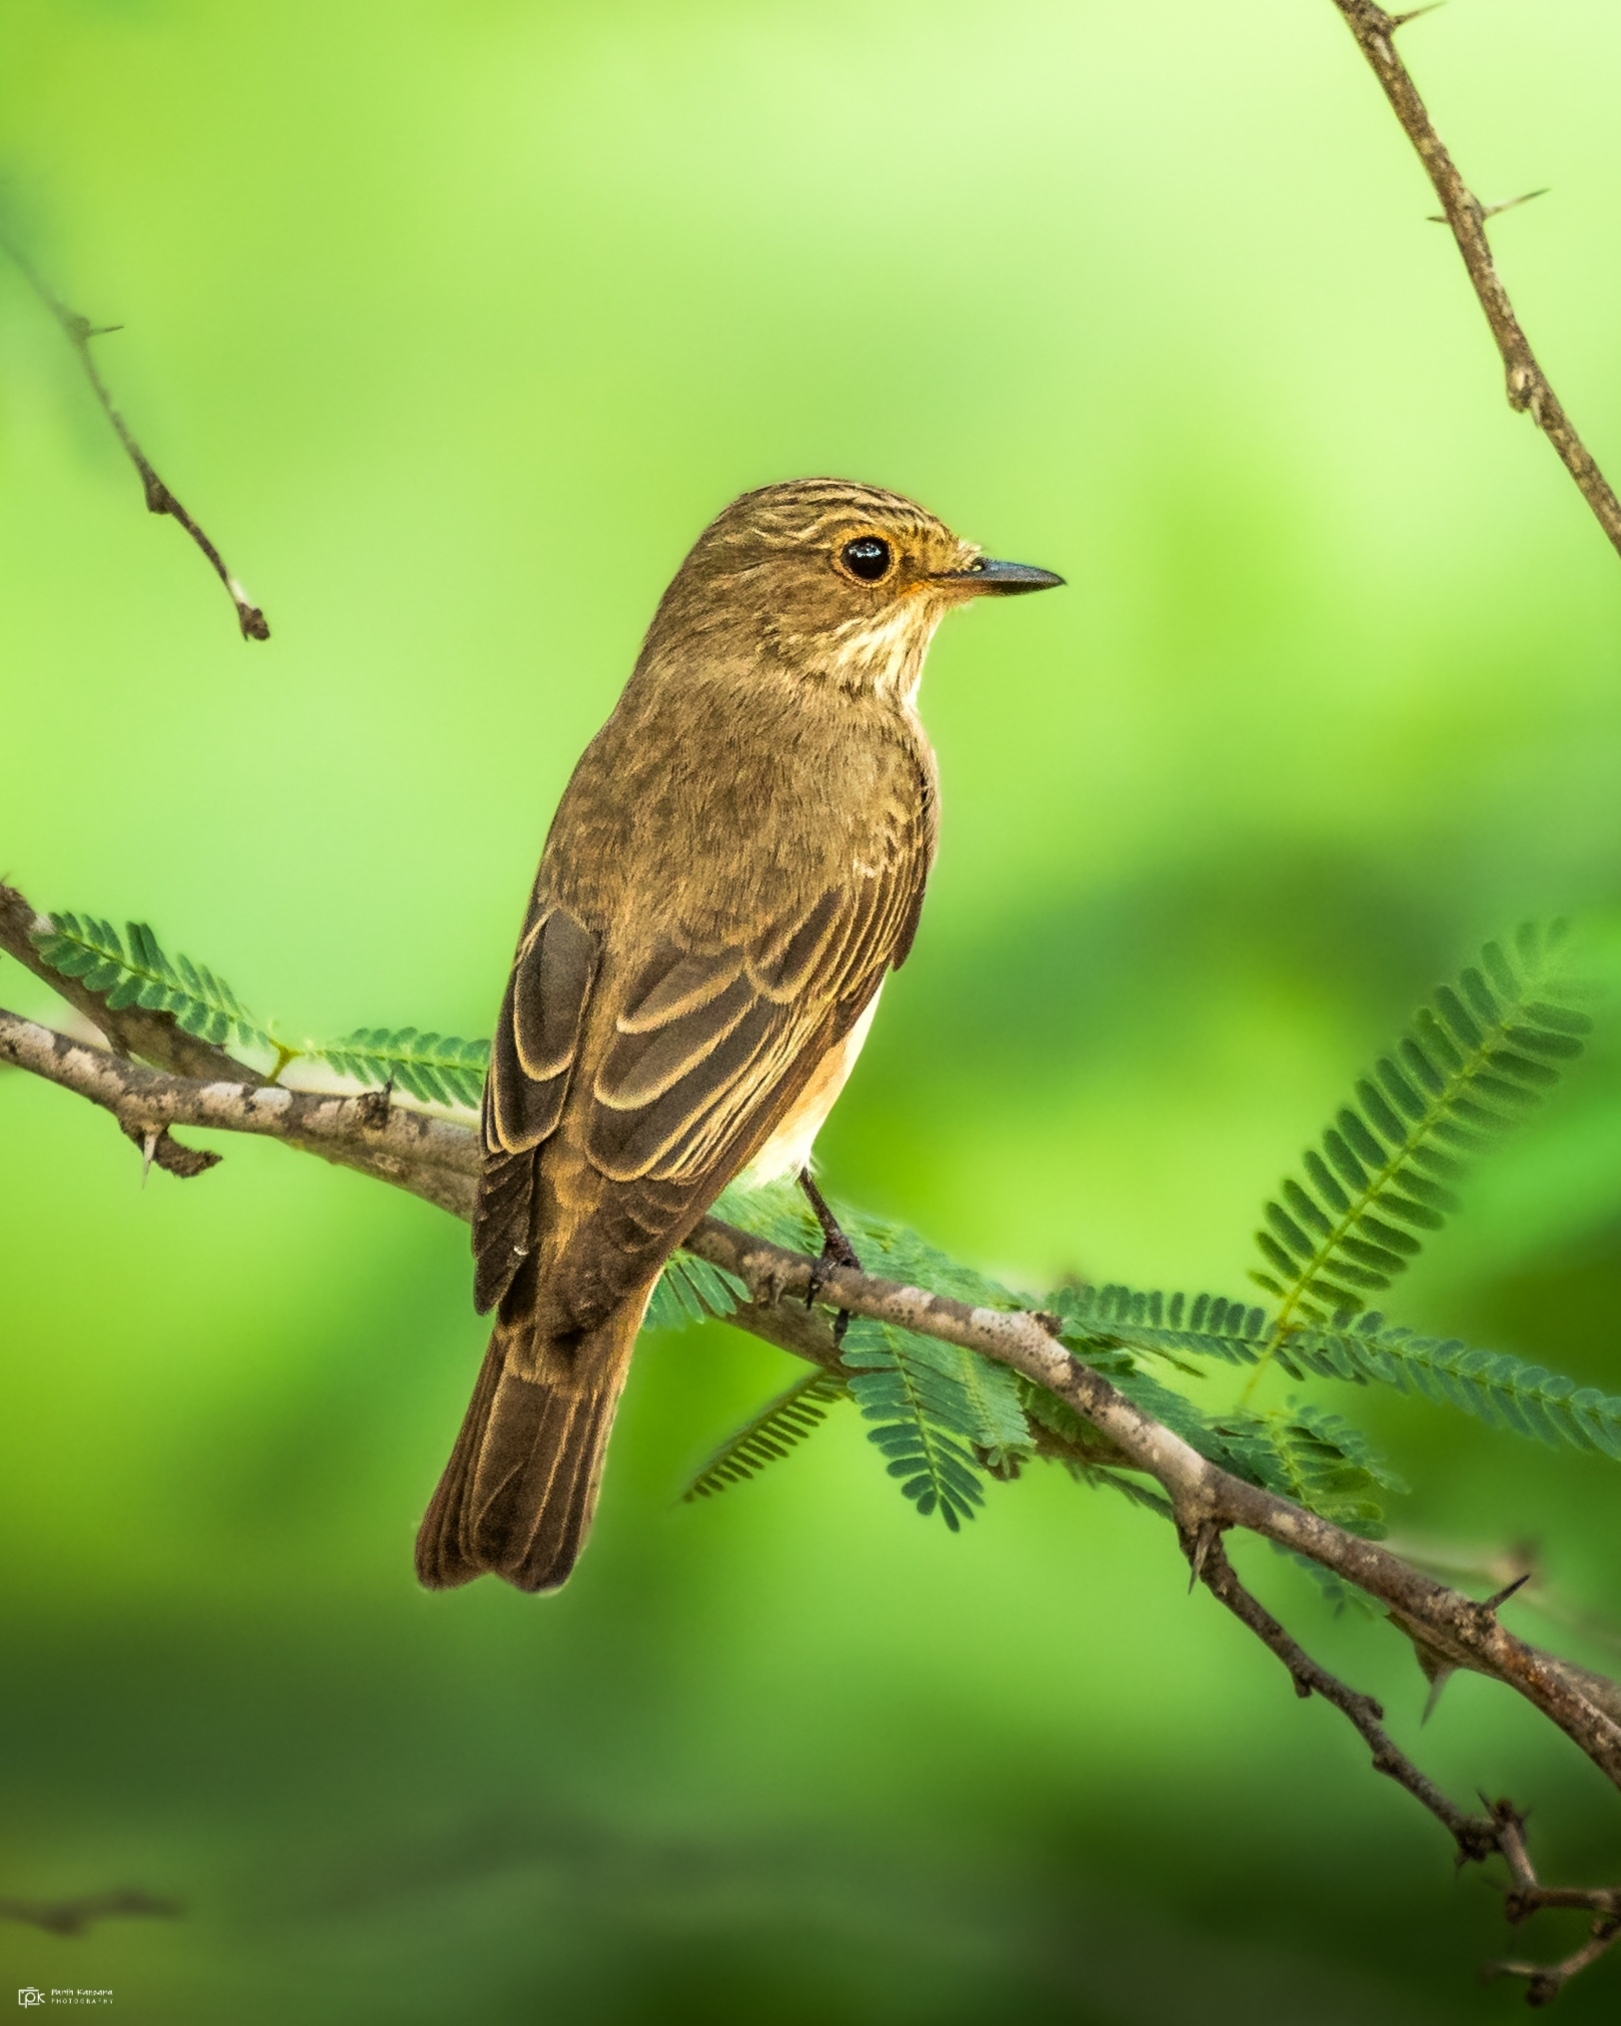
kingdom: Animalia
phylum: Chordata
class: Aves
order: Passeriformes
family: Muscicapidae
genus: Muscicapa
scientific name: Muscicapa striata
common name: Spotted flycatcher
